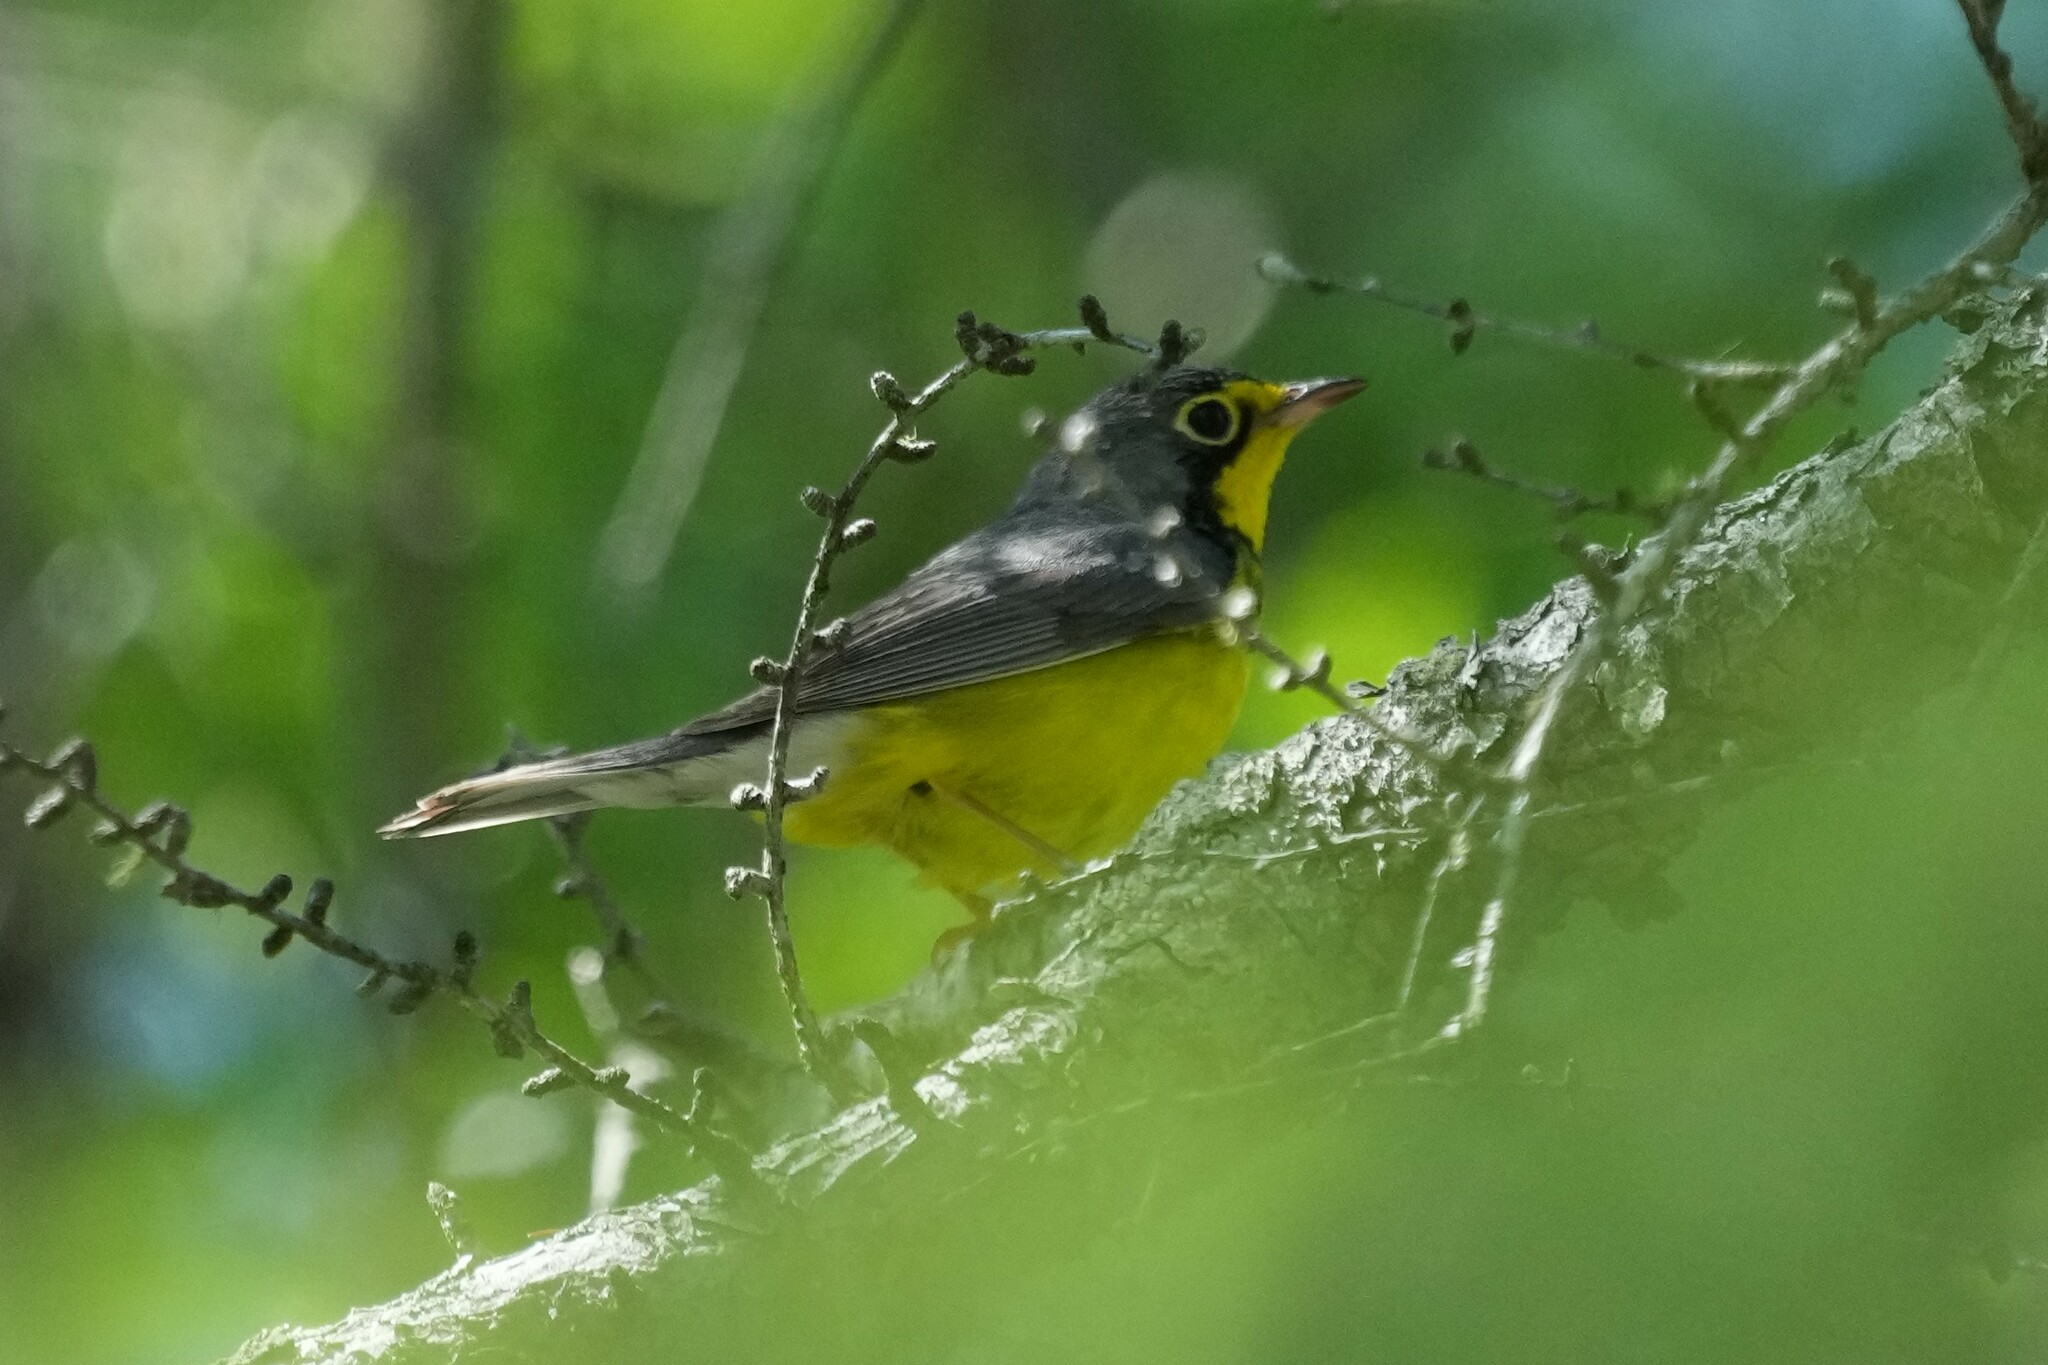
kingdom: Animalia
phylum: Chordata
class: Aves
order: Passeriformes
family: Parulidae
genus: Cardellina
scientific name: Cardellina canadensis
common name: Canada warbler
